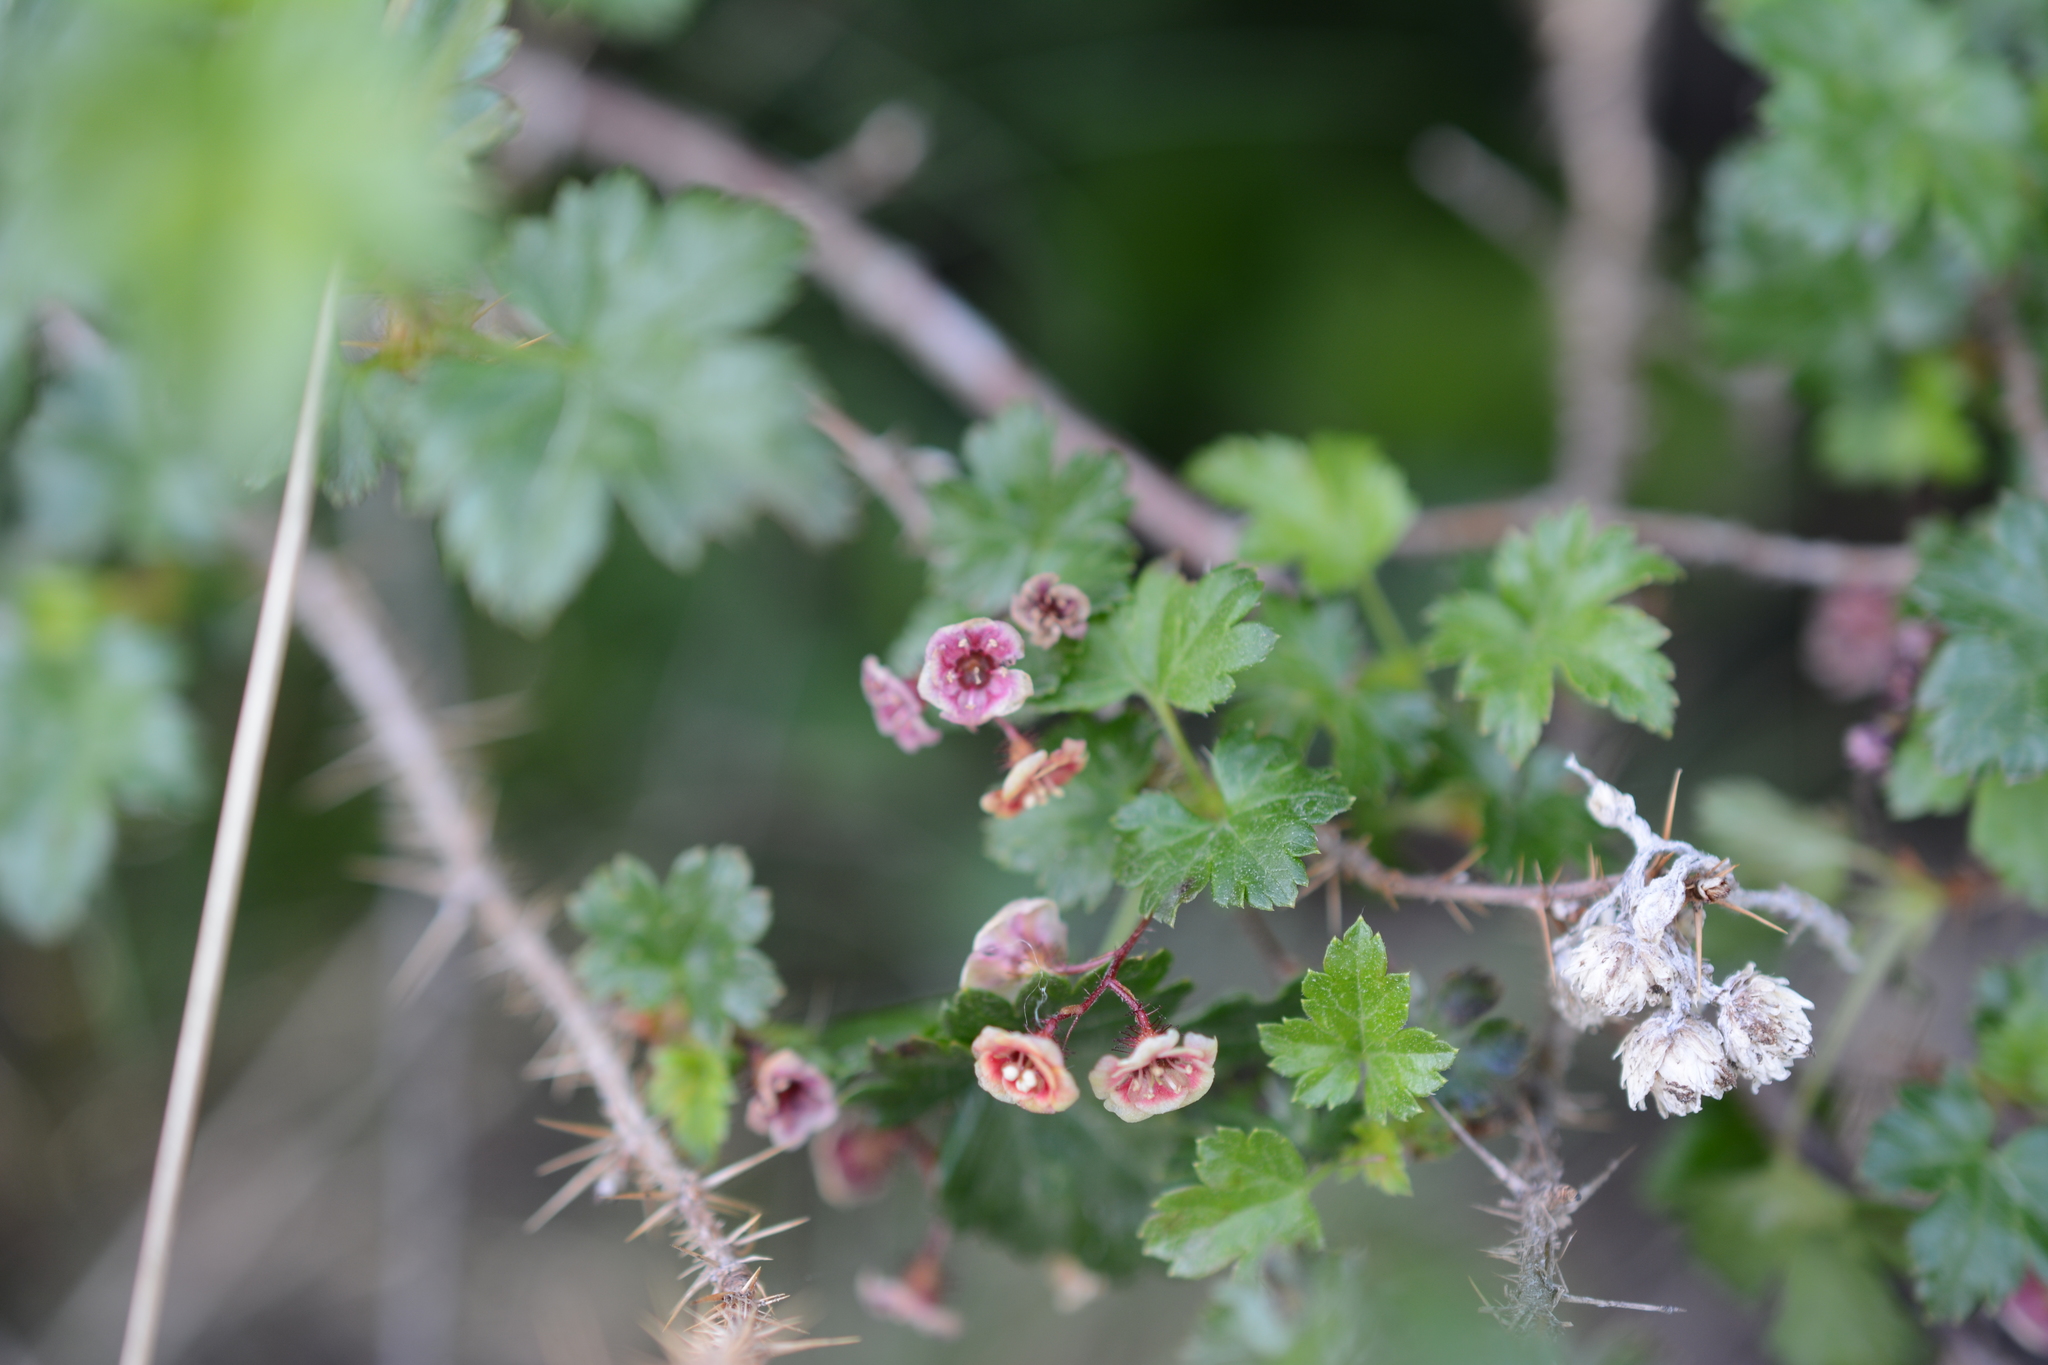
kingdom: Plantae
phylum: Tracheophyta
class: Magnoliopsida
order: Saxifragales
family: Grossulariaceae
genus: Ribes
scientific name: Ribes lacustre
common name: Black gooseberry
